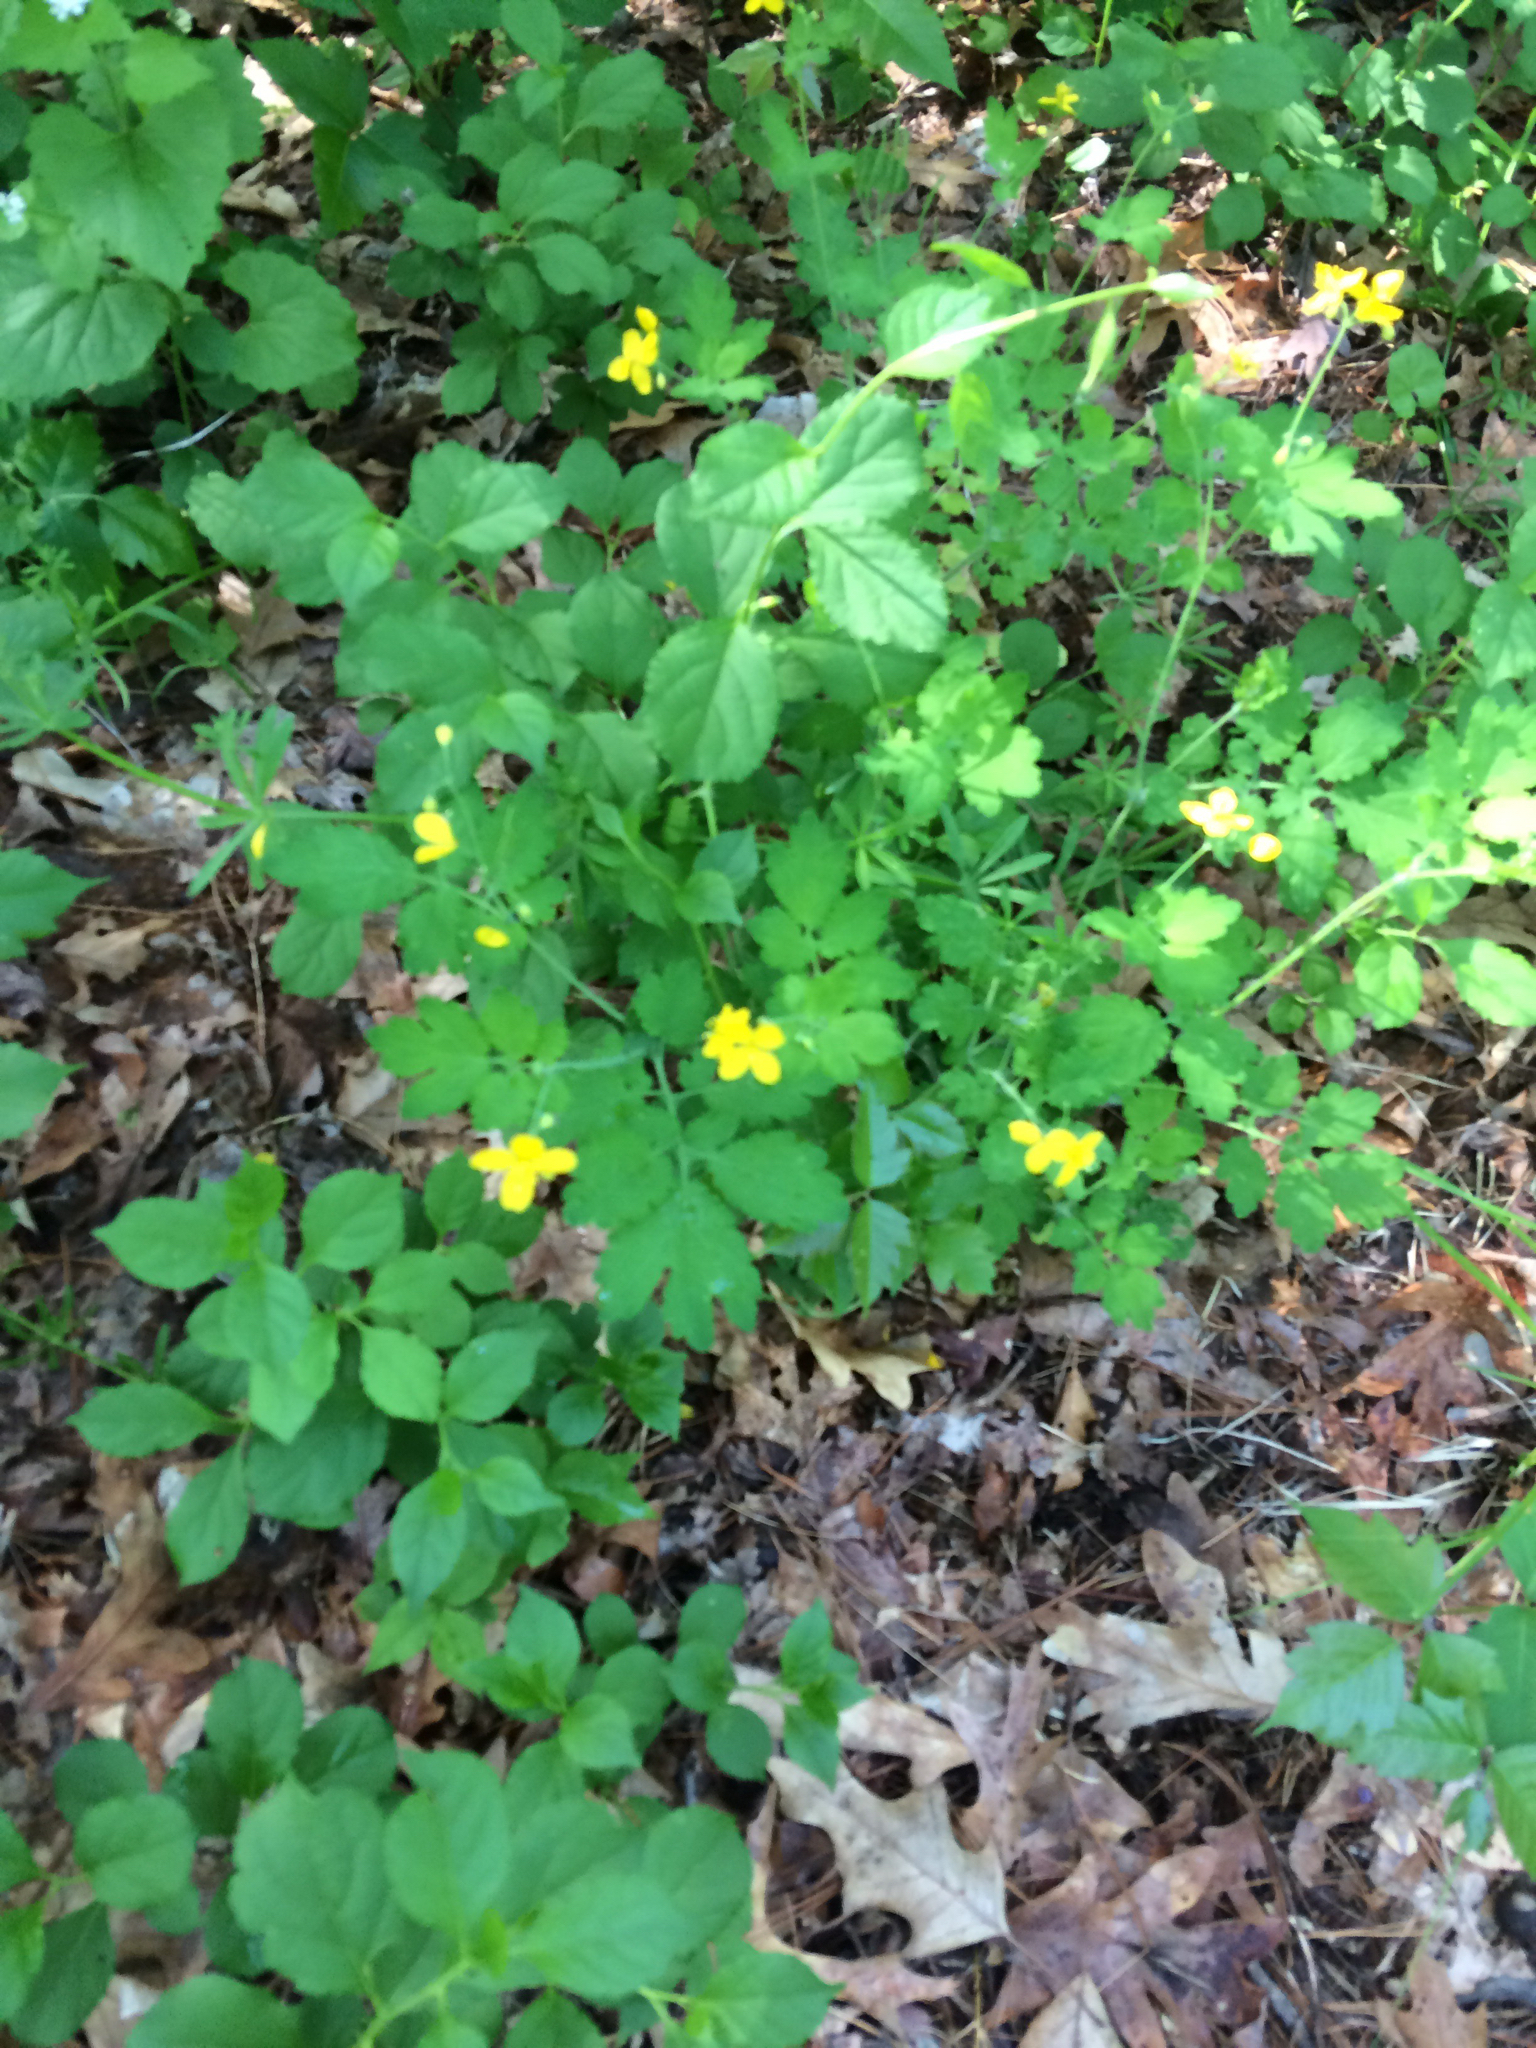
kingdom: Plantae
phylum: Tracheophyta
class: Magnoliopsida
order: Ranunculales
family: Papaveraceae
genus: Chelidonium
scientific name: Chelidonium majus
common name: Greater celandine
